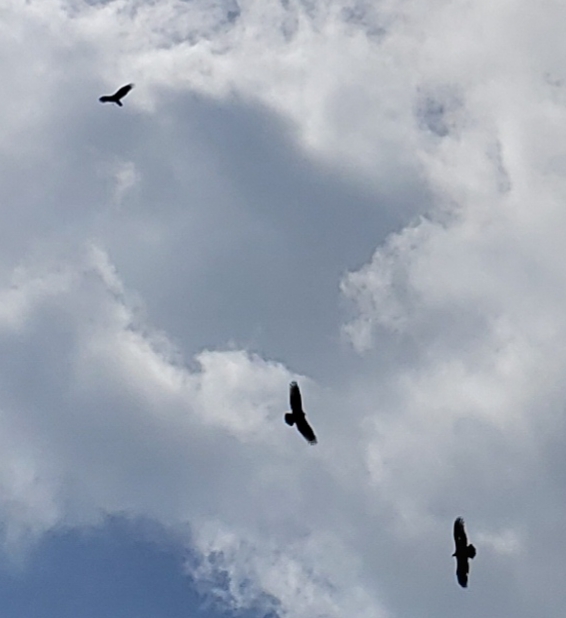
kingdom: Animalia
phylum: Chordata
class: Aves
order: Accipitriformes
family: Cathartidae
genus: Cathartes
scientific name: Cathartes aura
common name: Turkey vulture
